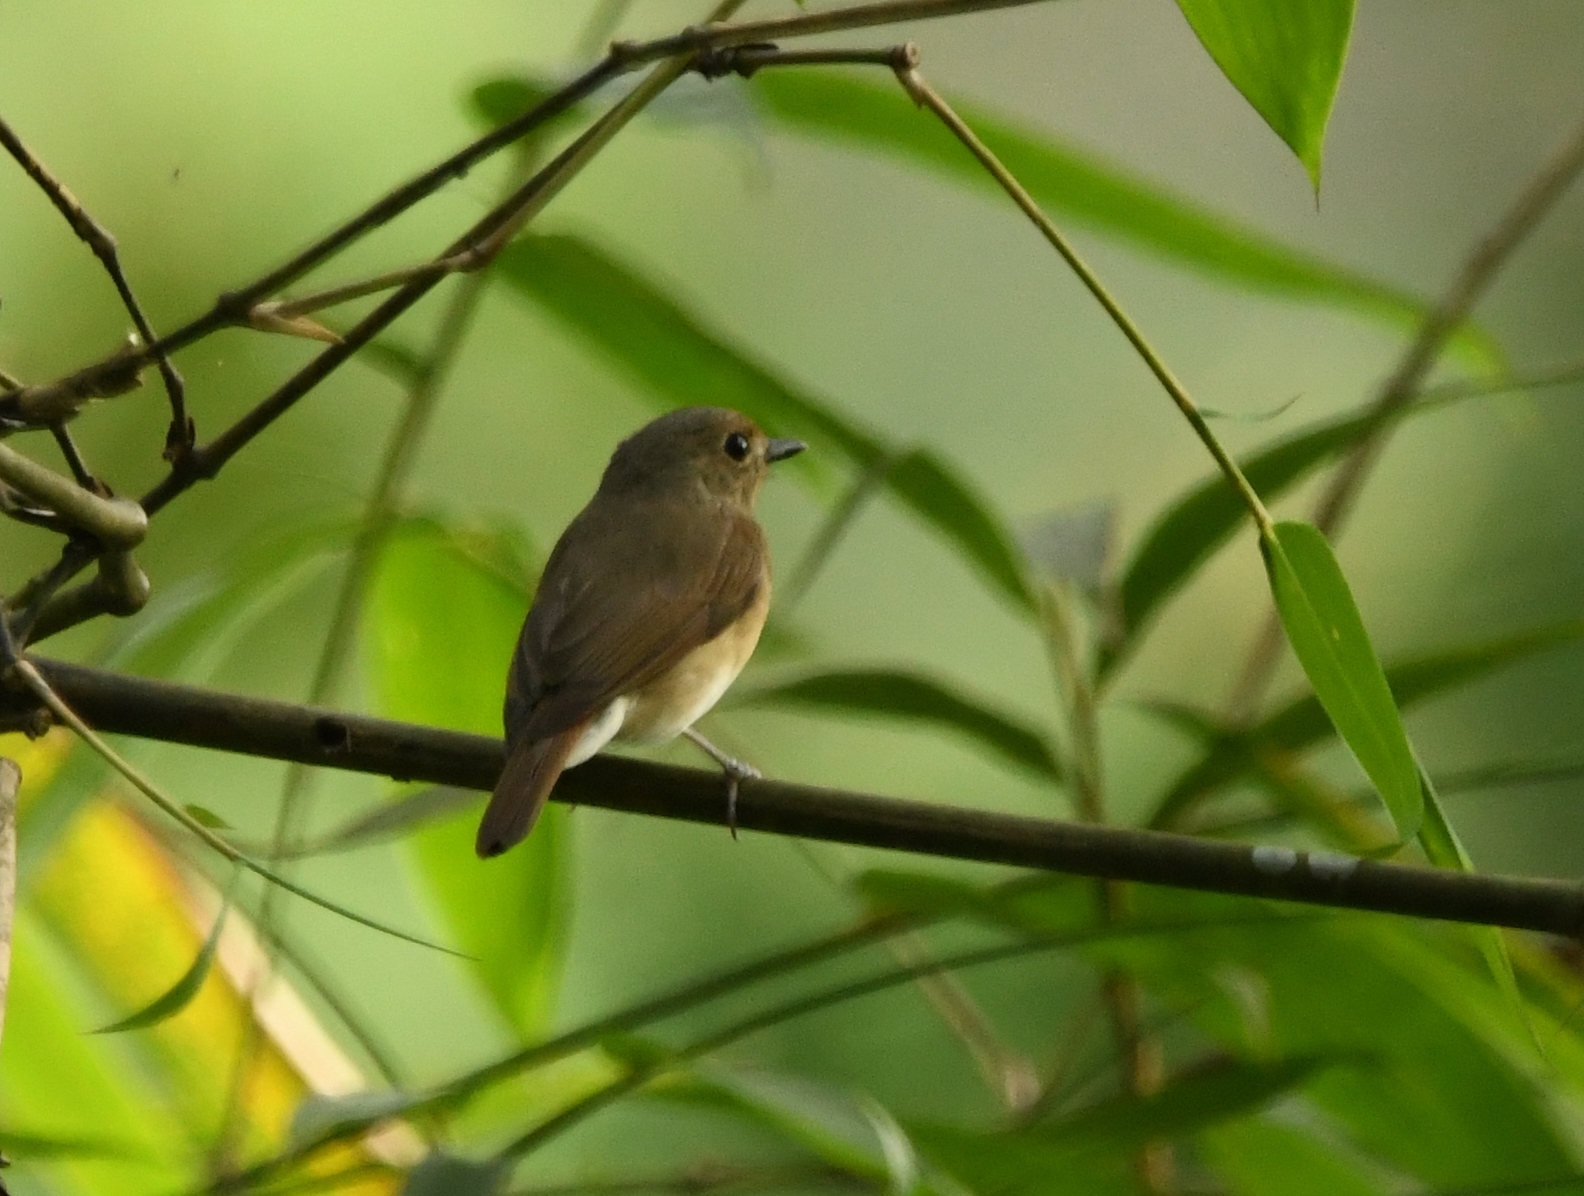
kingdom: Animalia
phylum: Chordata
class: Aves
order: Passeriformes
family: Muscicapidae
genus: Cyornis
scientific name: Cyornis rubeculoides
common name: Blue-throated blue flycatcher
